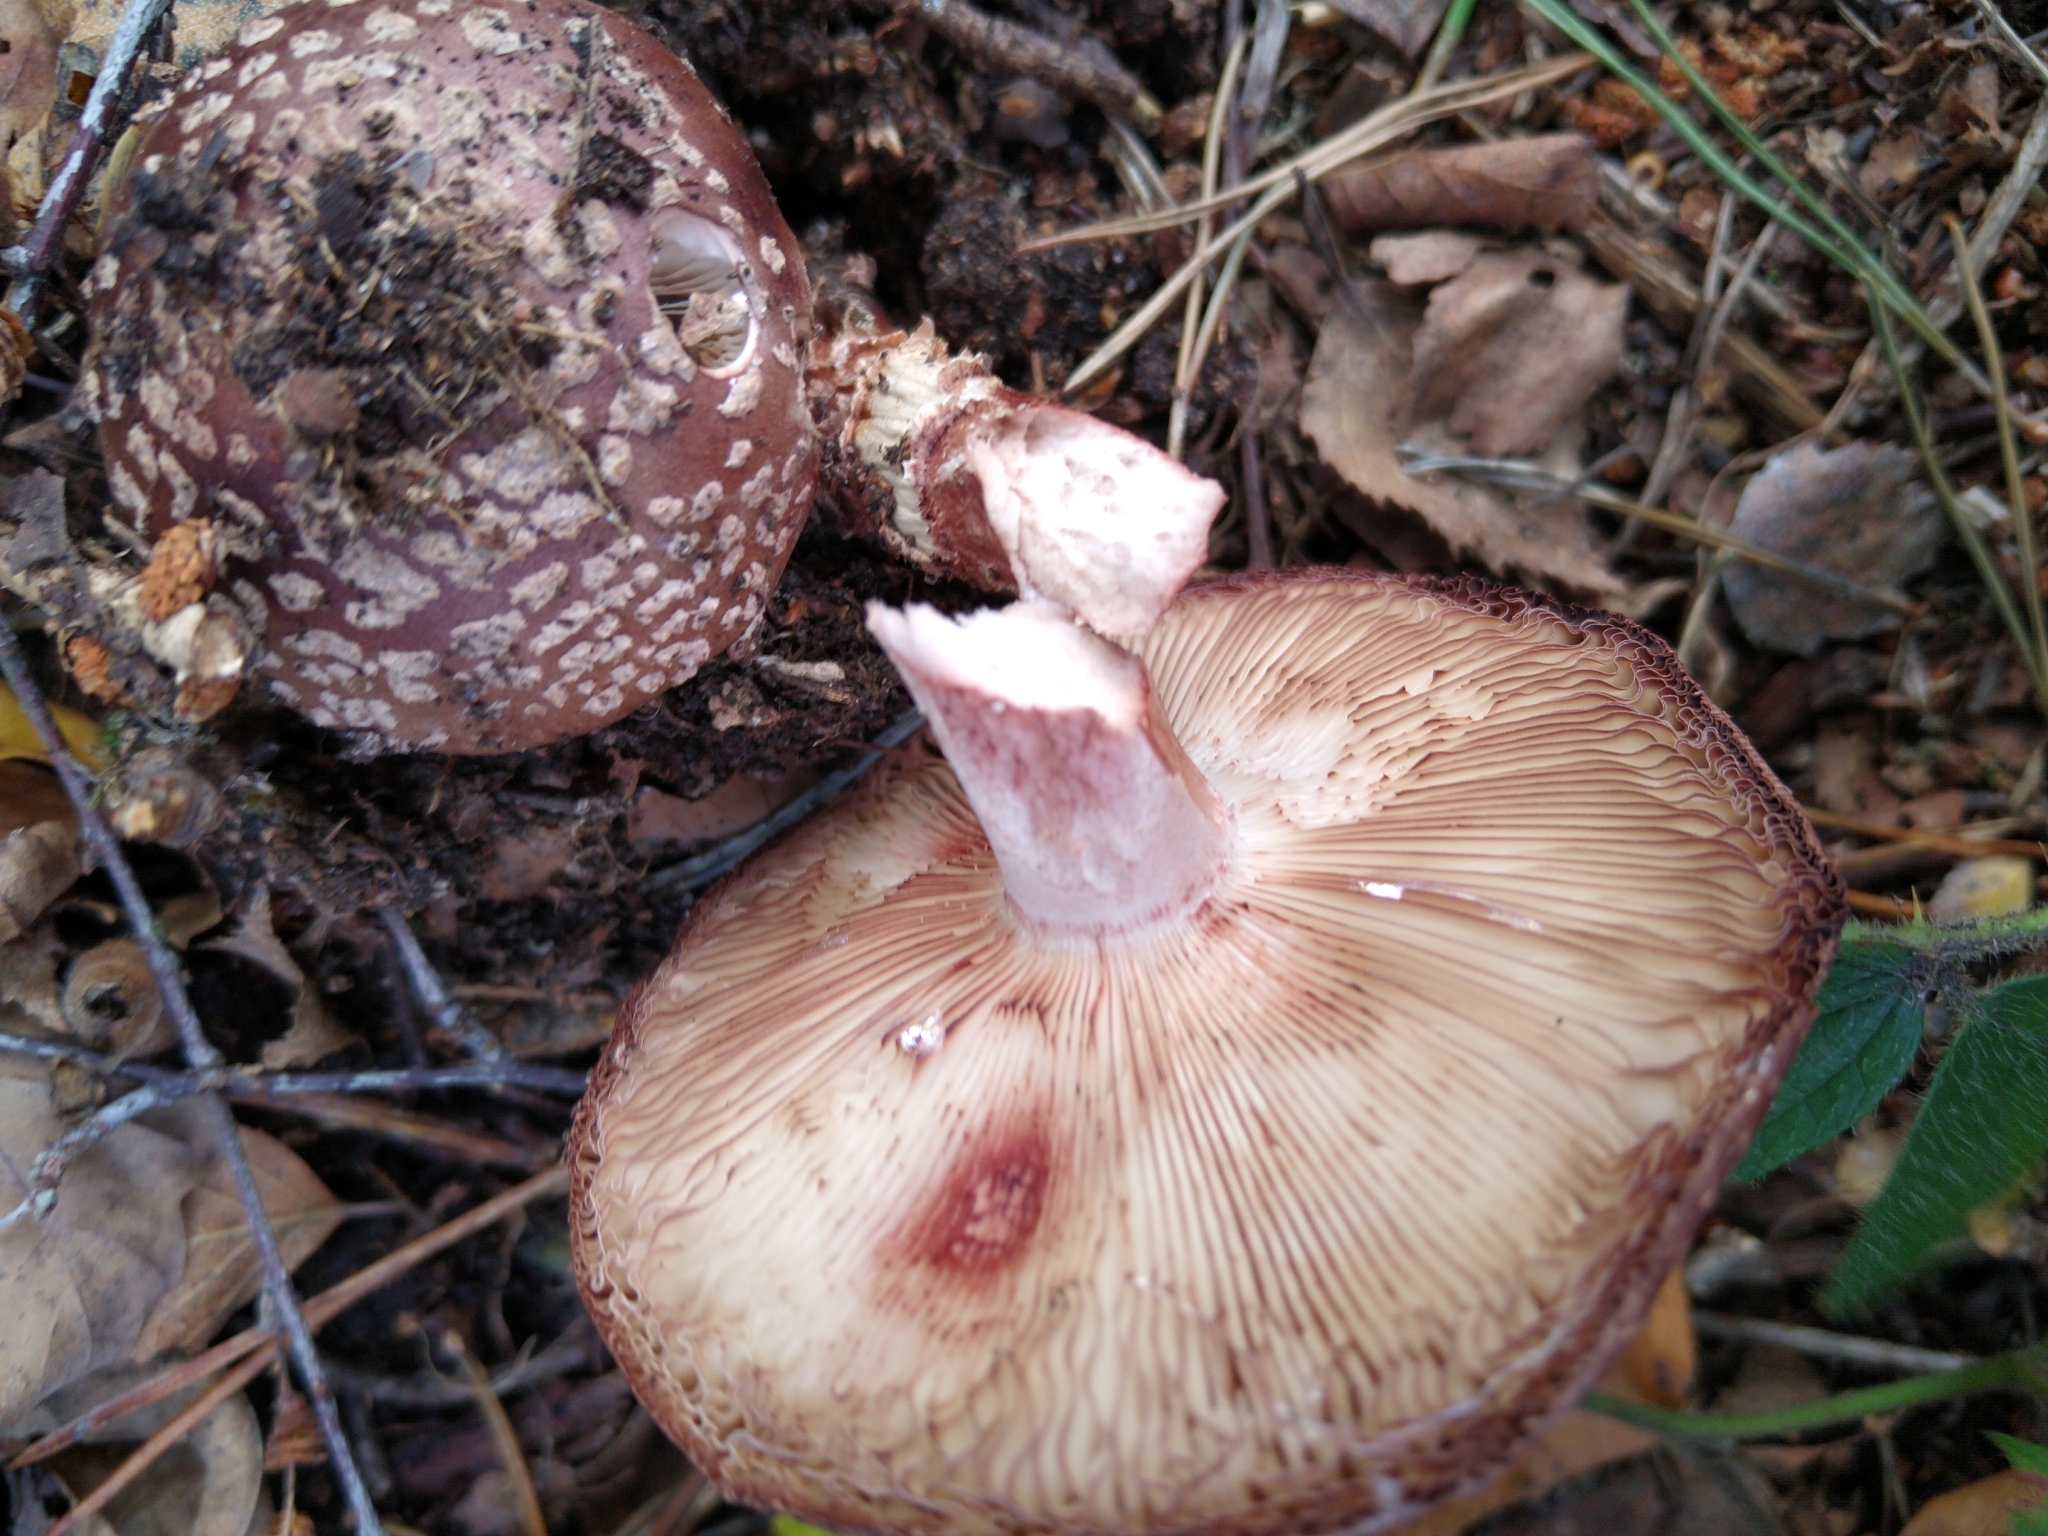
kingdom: Fungi
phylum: Basidiomycota
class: Agaricomycetes
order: Agaricales
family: Amanitaceae
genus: Amanita
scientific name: Amanita rubescens
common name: Blusher
